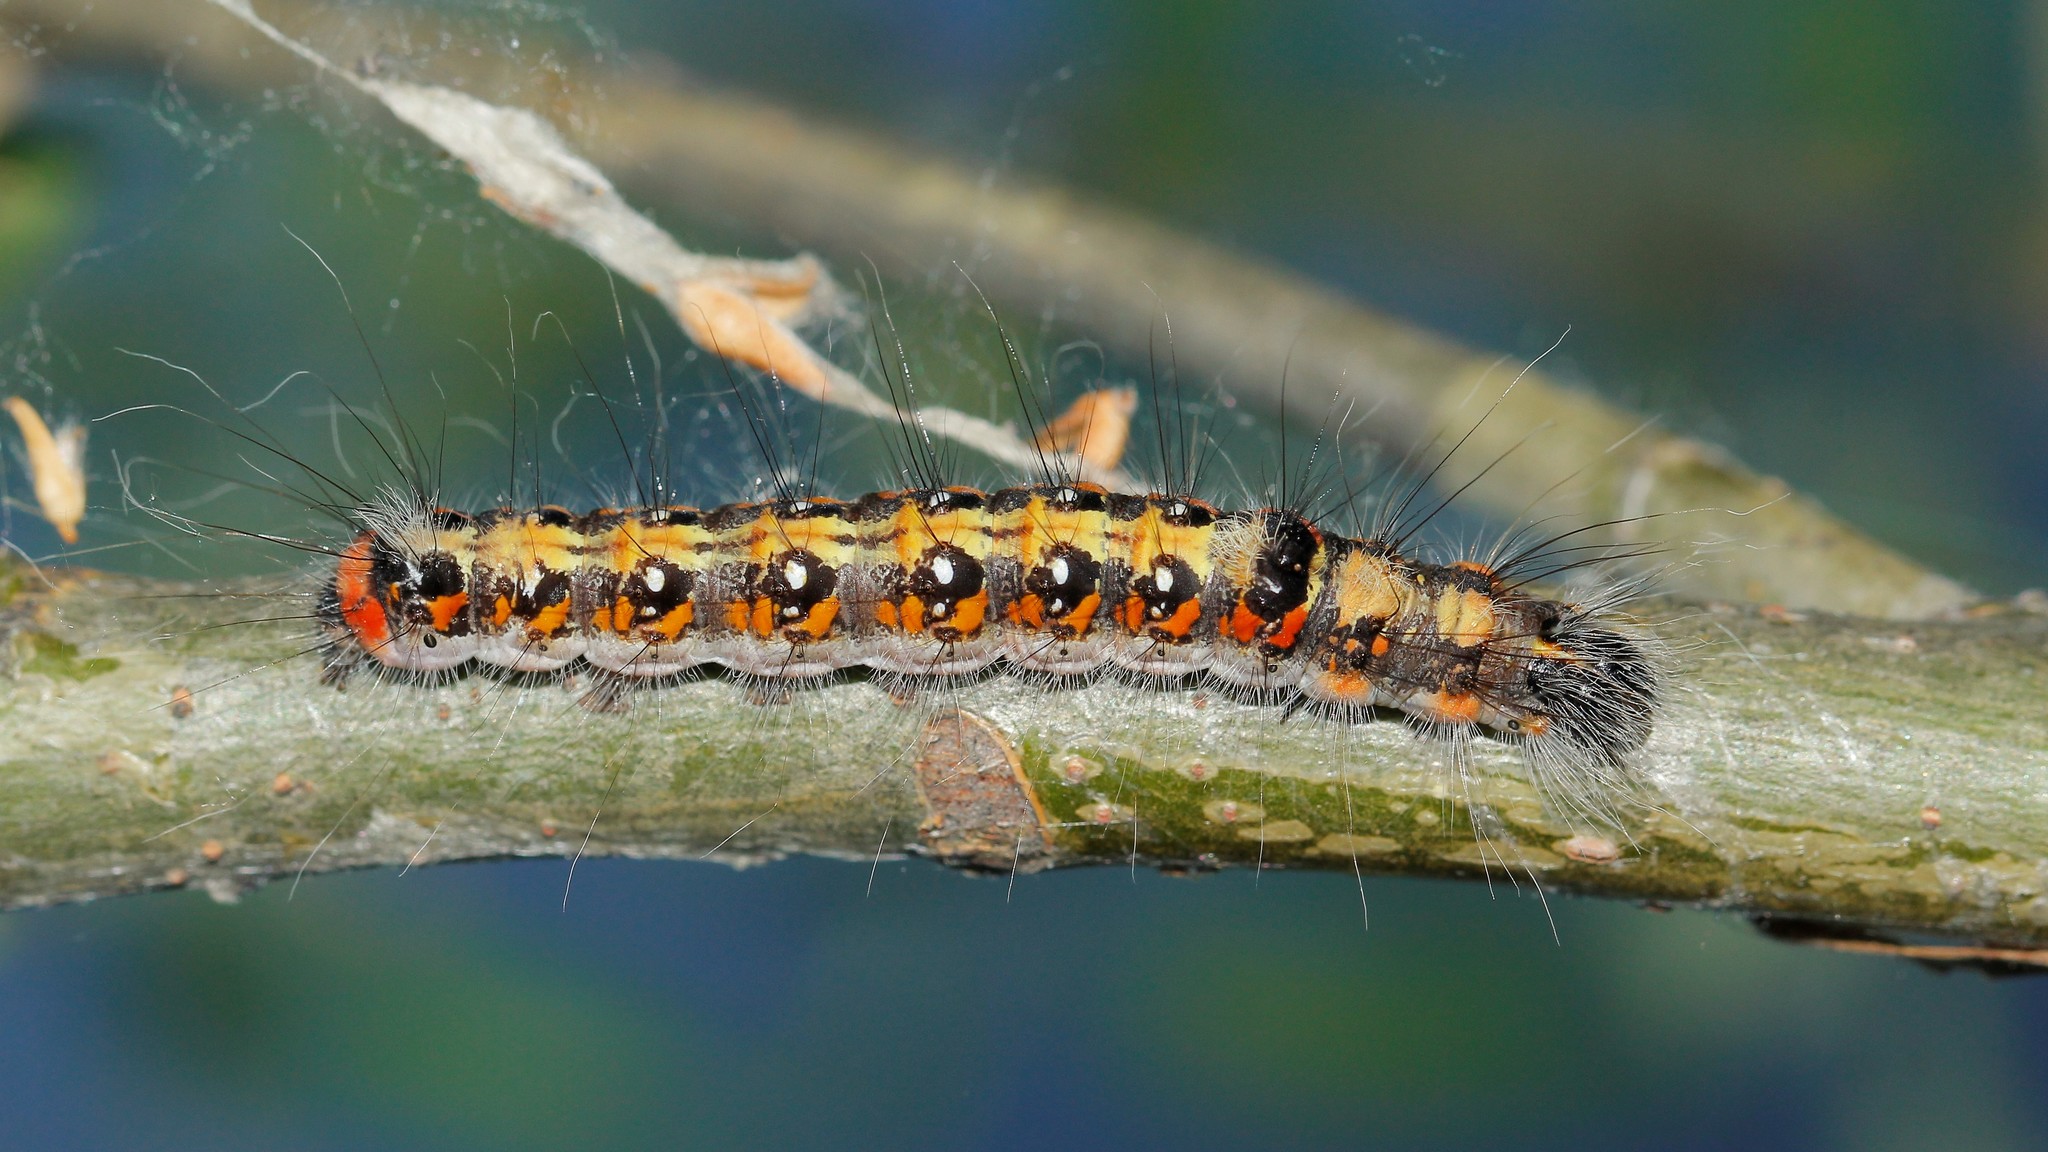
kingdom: Animalia
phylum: Arthropoda
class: Insecta
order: Lepidoptera
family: Noctuidae
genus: Acronicta
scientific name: Acronicta tridens
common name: Dark dagger
